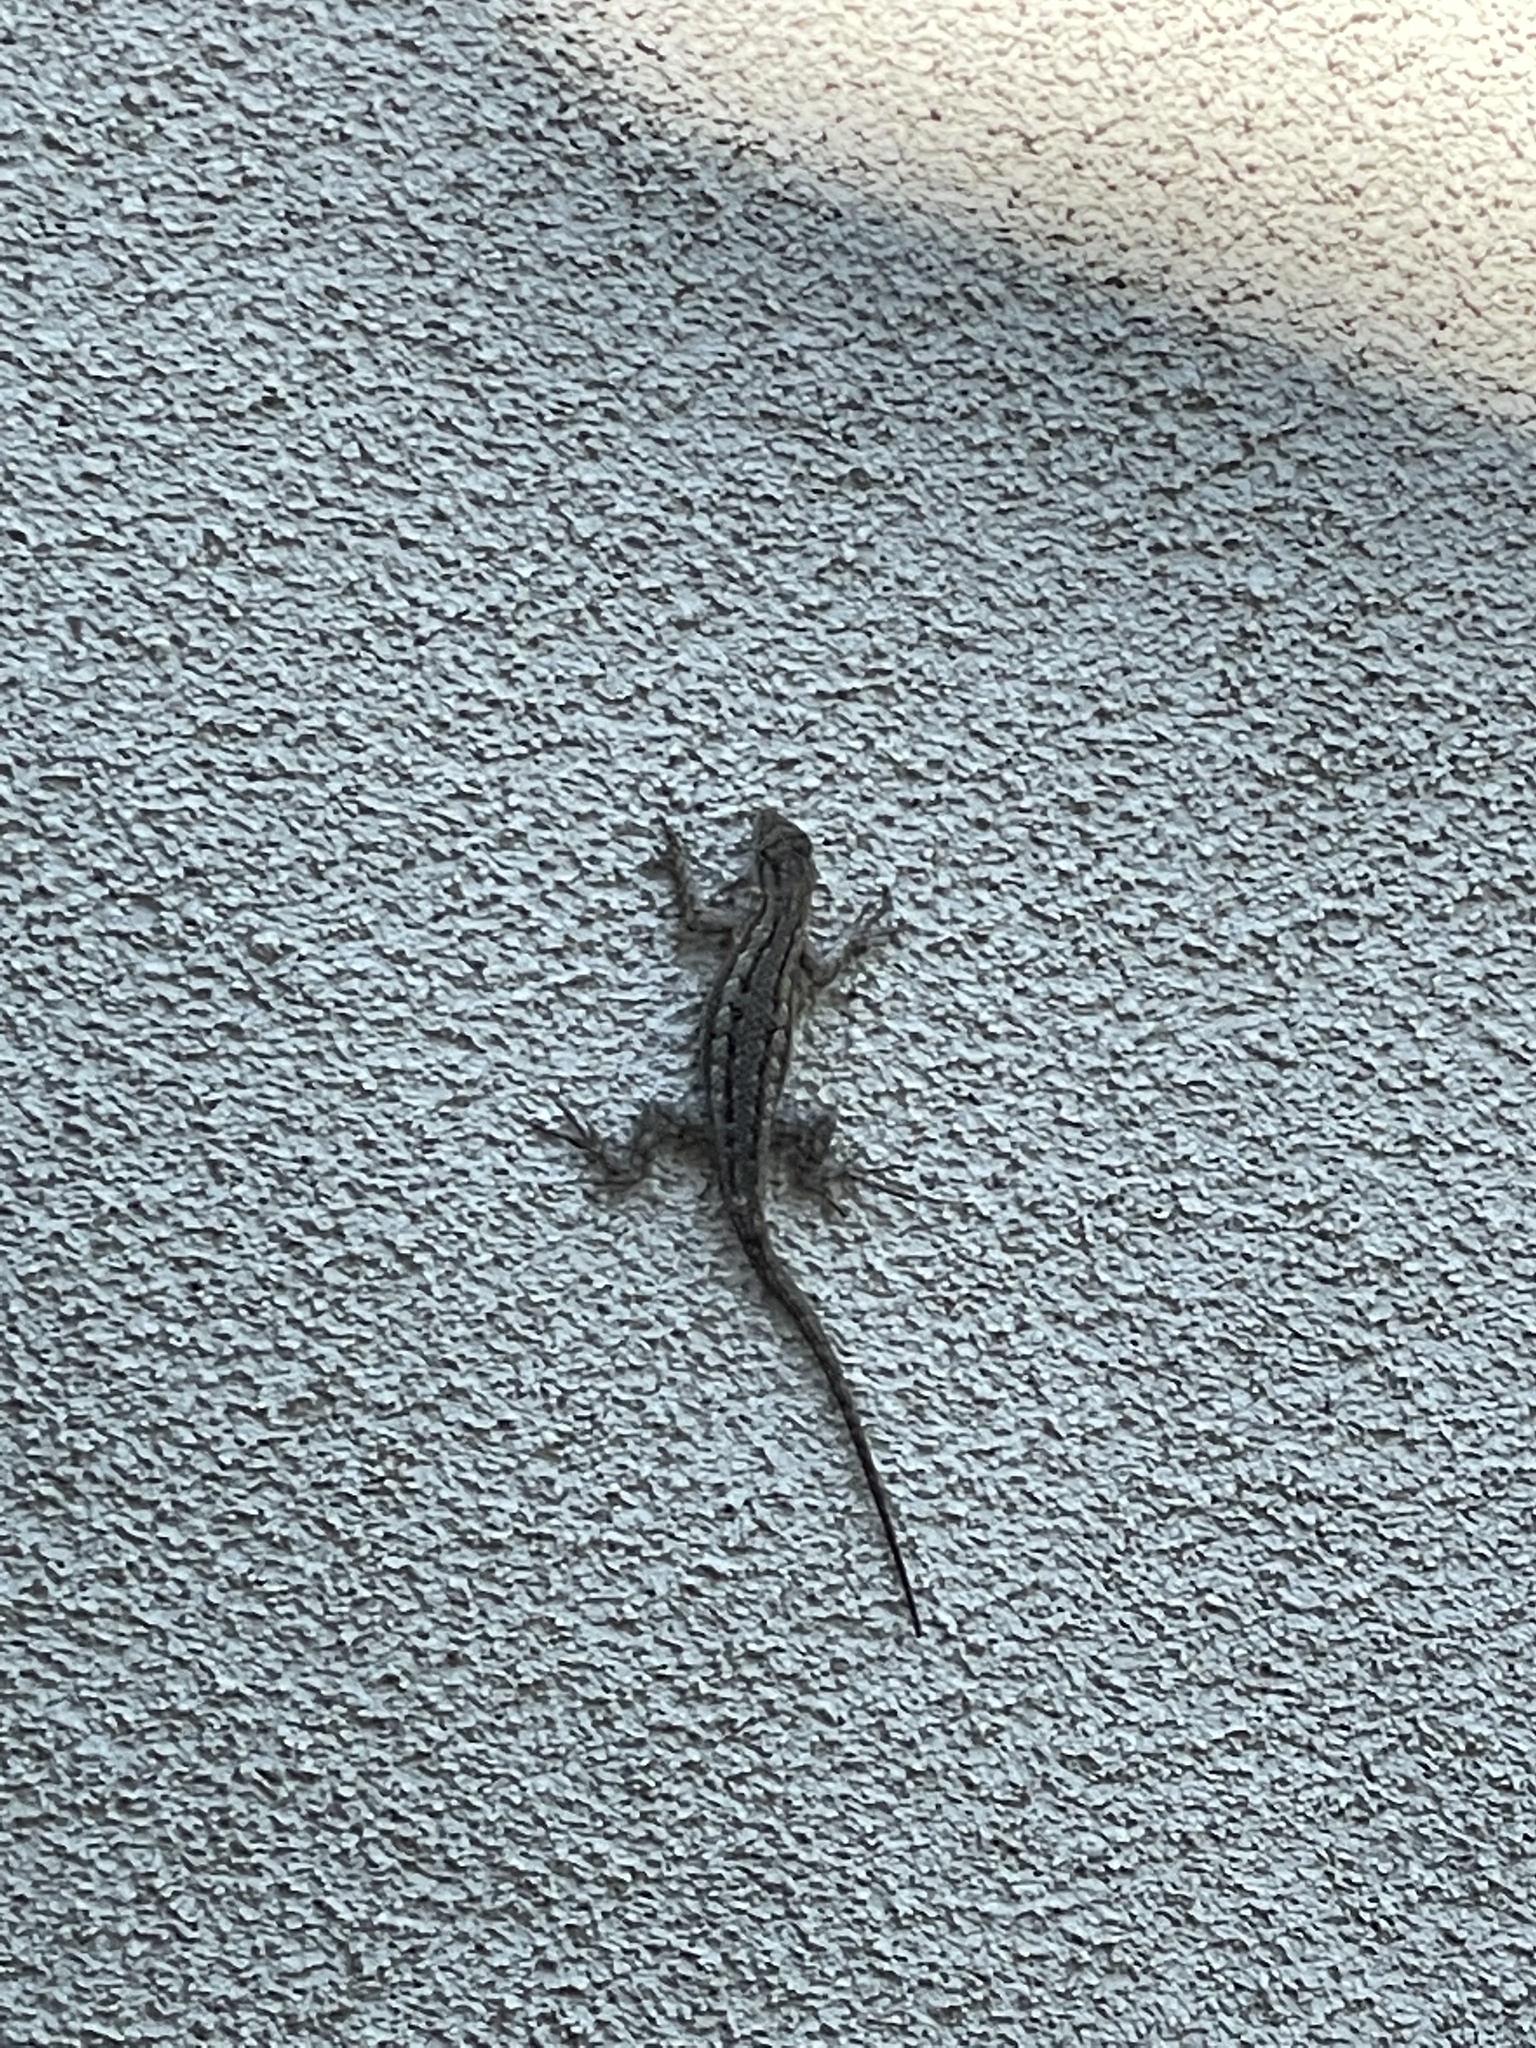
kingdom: Animalia
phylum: Chordata
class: Squamata
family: Phrynosomatidae
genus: Sceloporus
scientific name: Sceloporus occidentalis
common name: Western fence lizard
